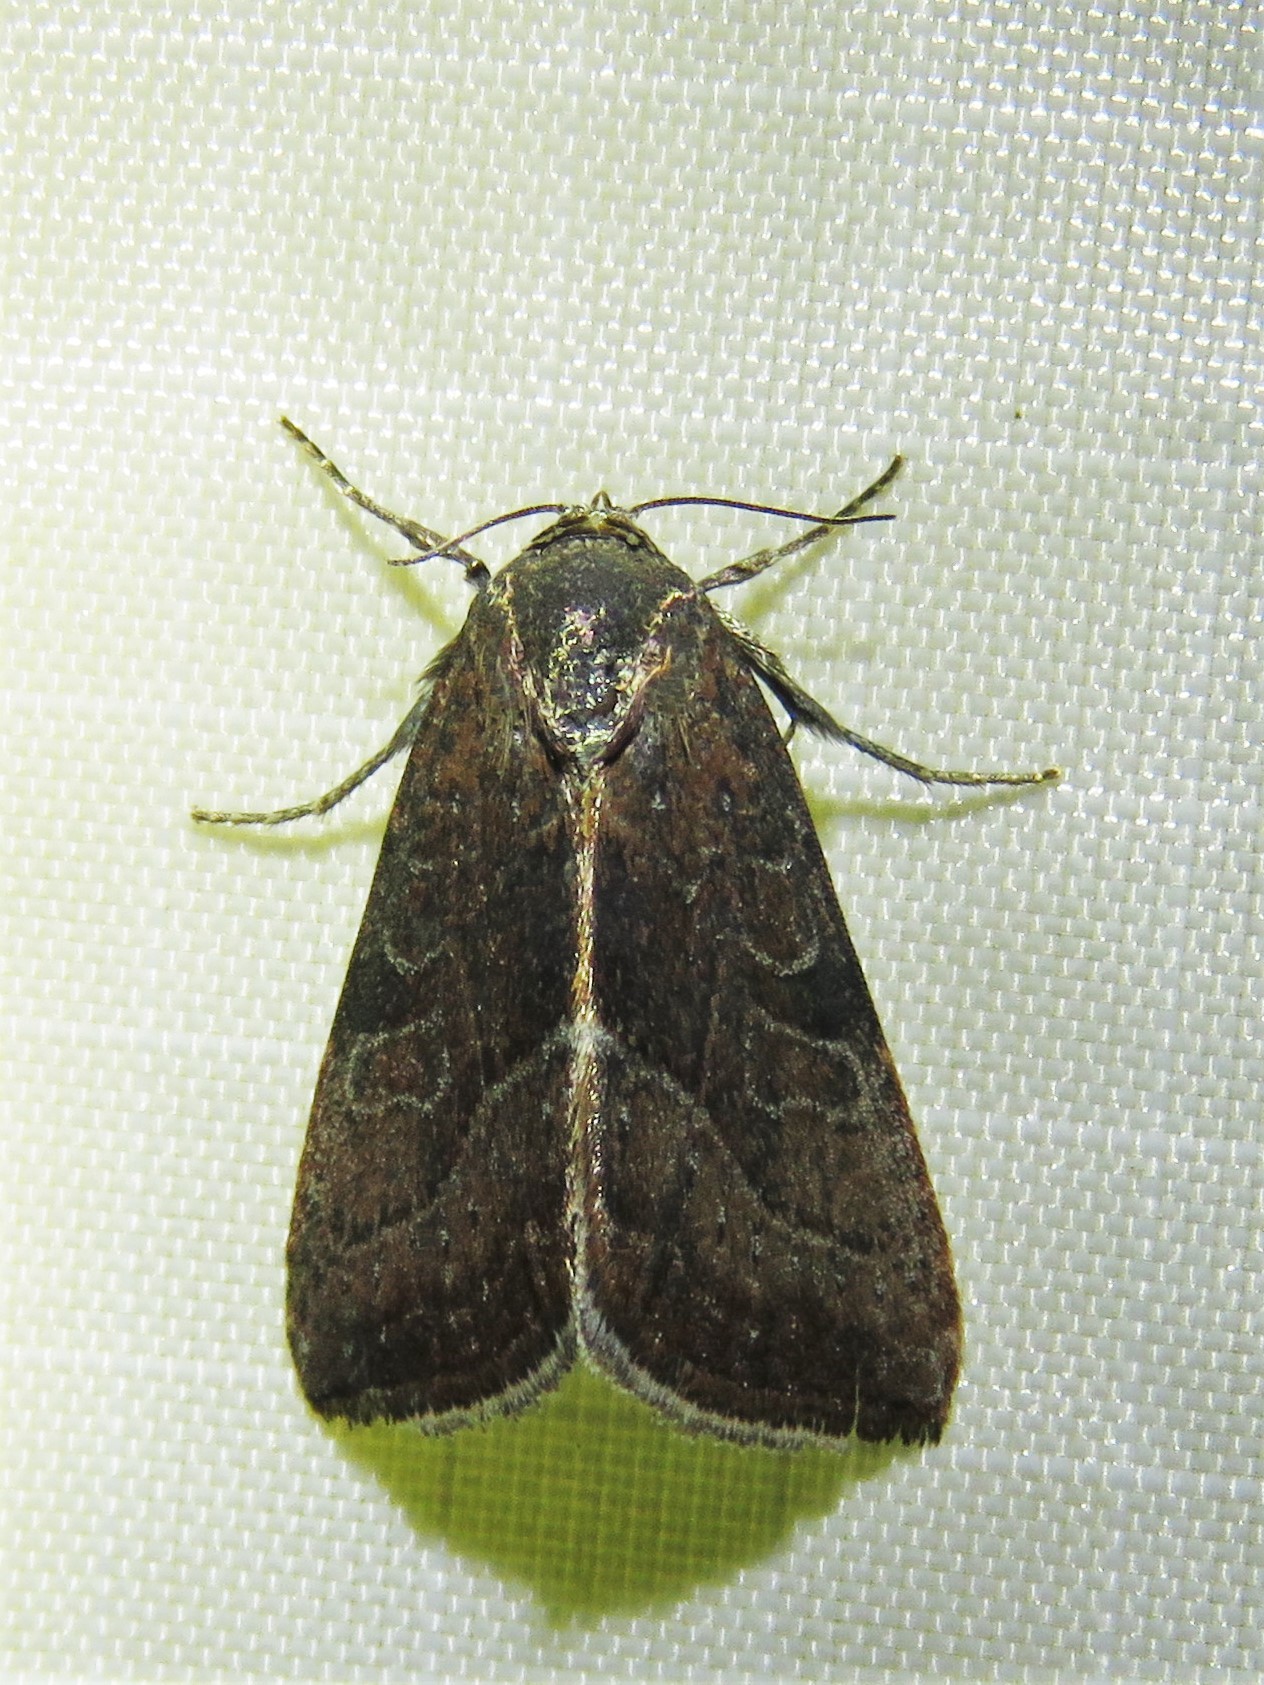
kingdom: Animalia
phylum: Arthropoda
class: Insecta
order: Lepidoptera
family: Noctuidae
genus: Galgula
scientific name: Galgula partita
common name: Wedgeling
